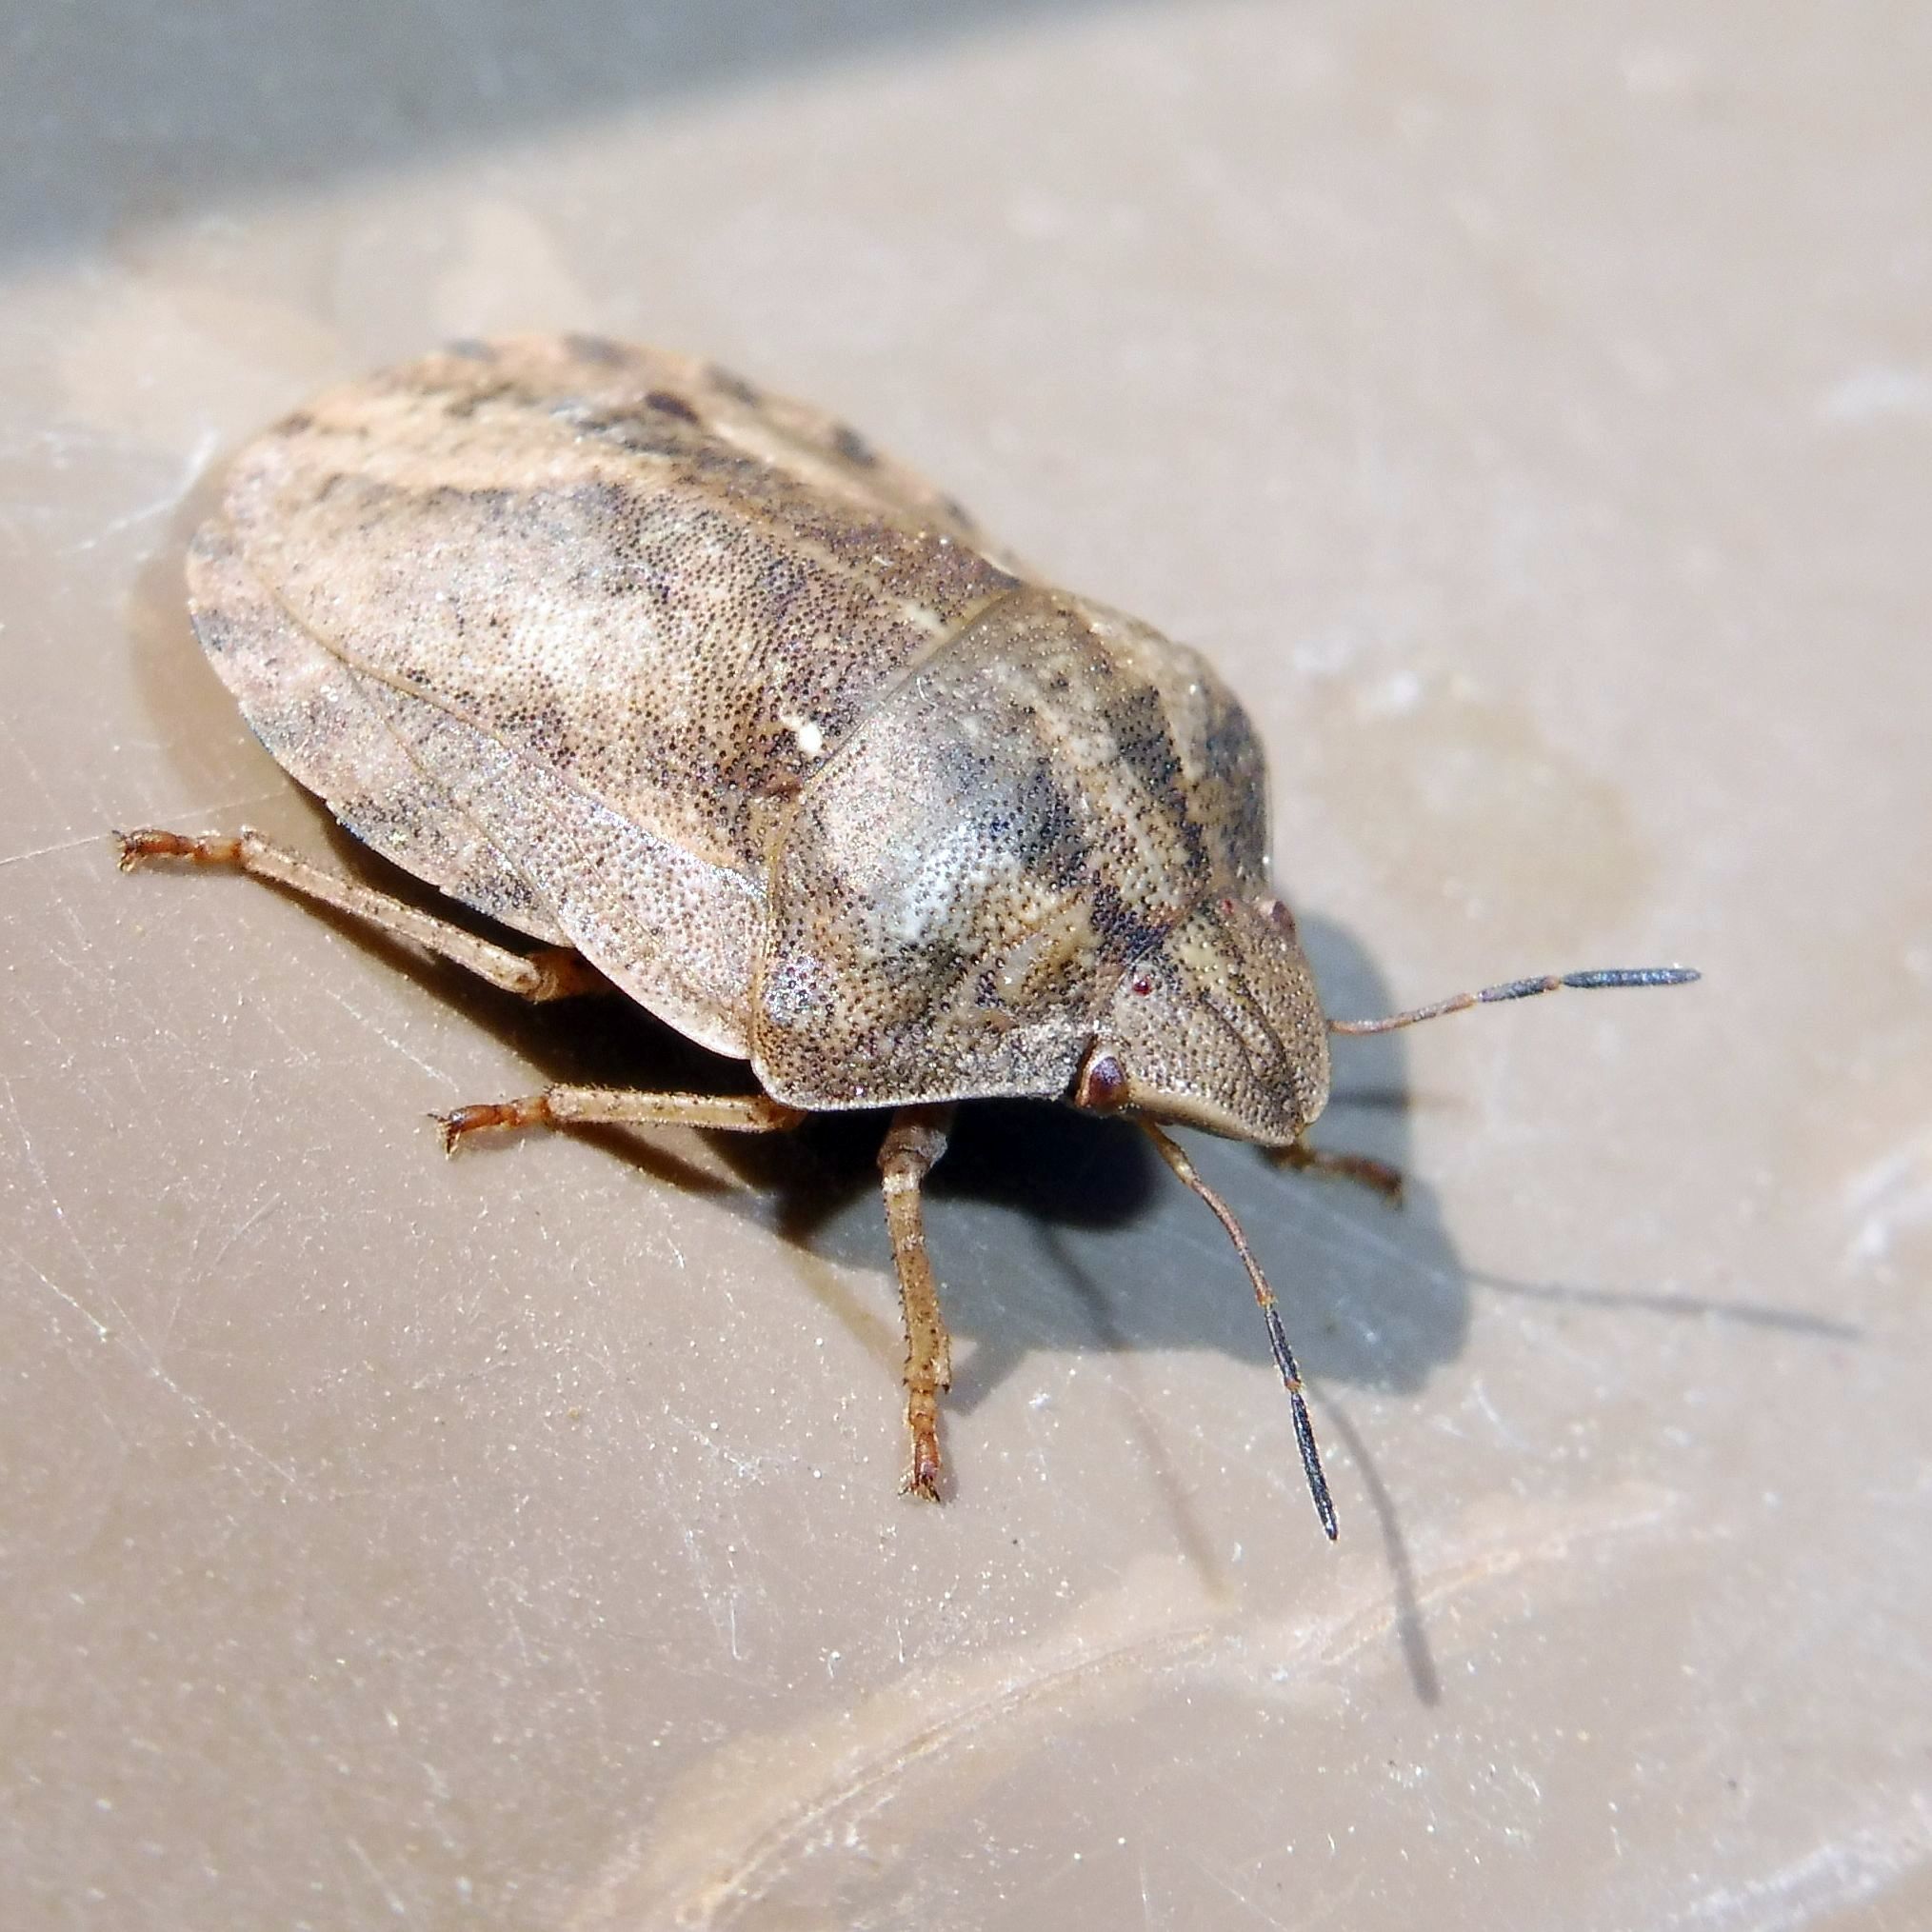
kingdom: Animalia
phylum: Arthropoda
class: Insecta
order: Hemiptera
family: Scutelleridae
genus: Eurygaster
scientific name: Eurygaster testudinaria
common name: Tortoise bug
